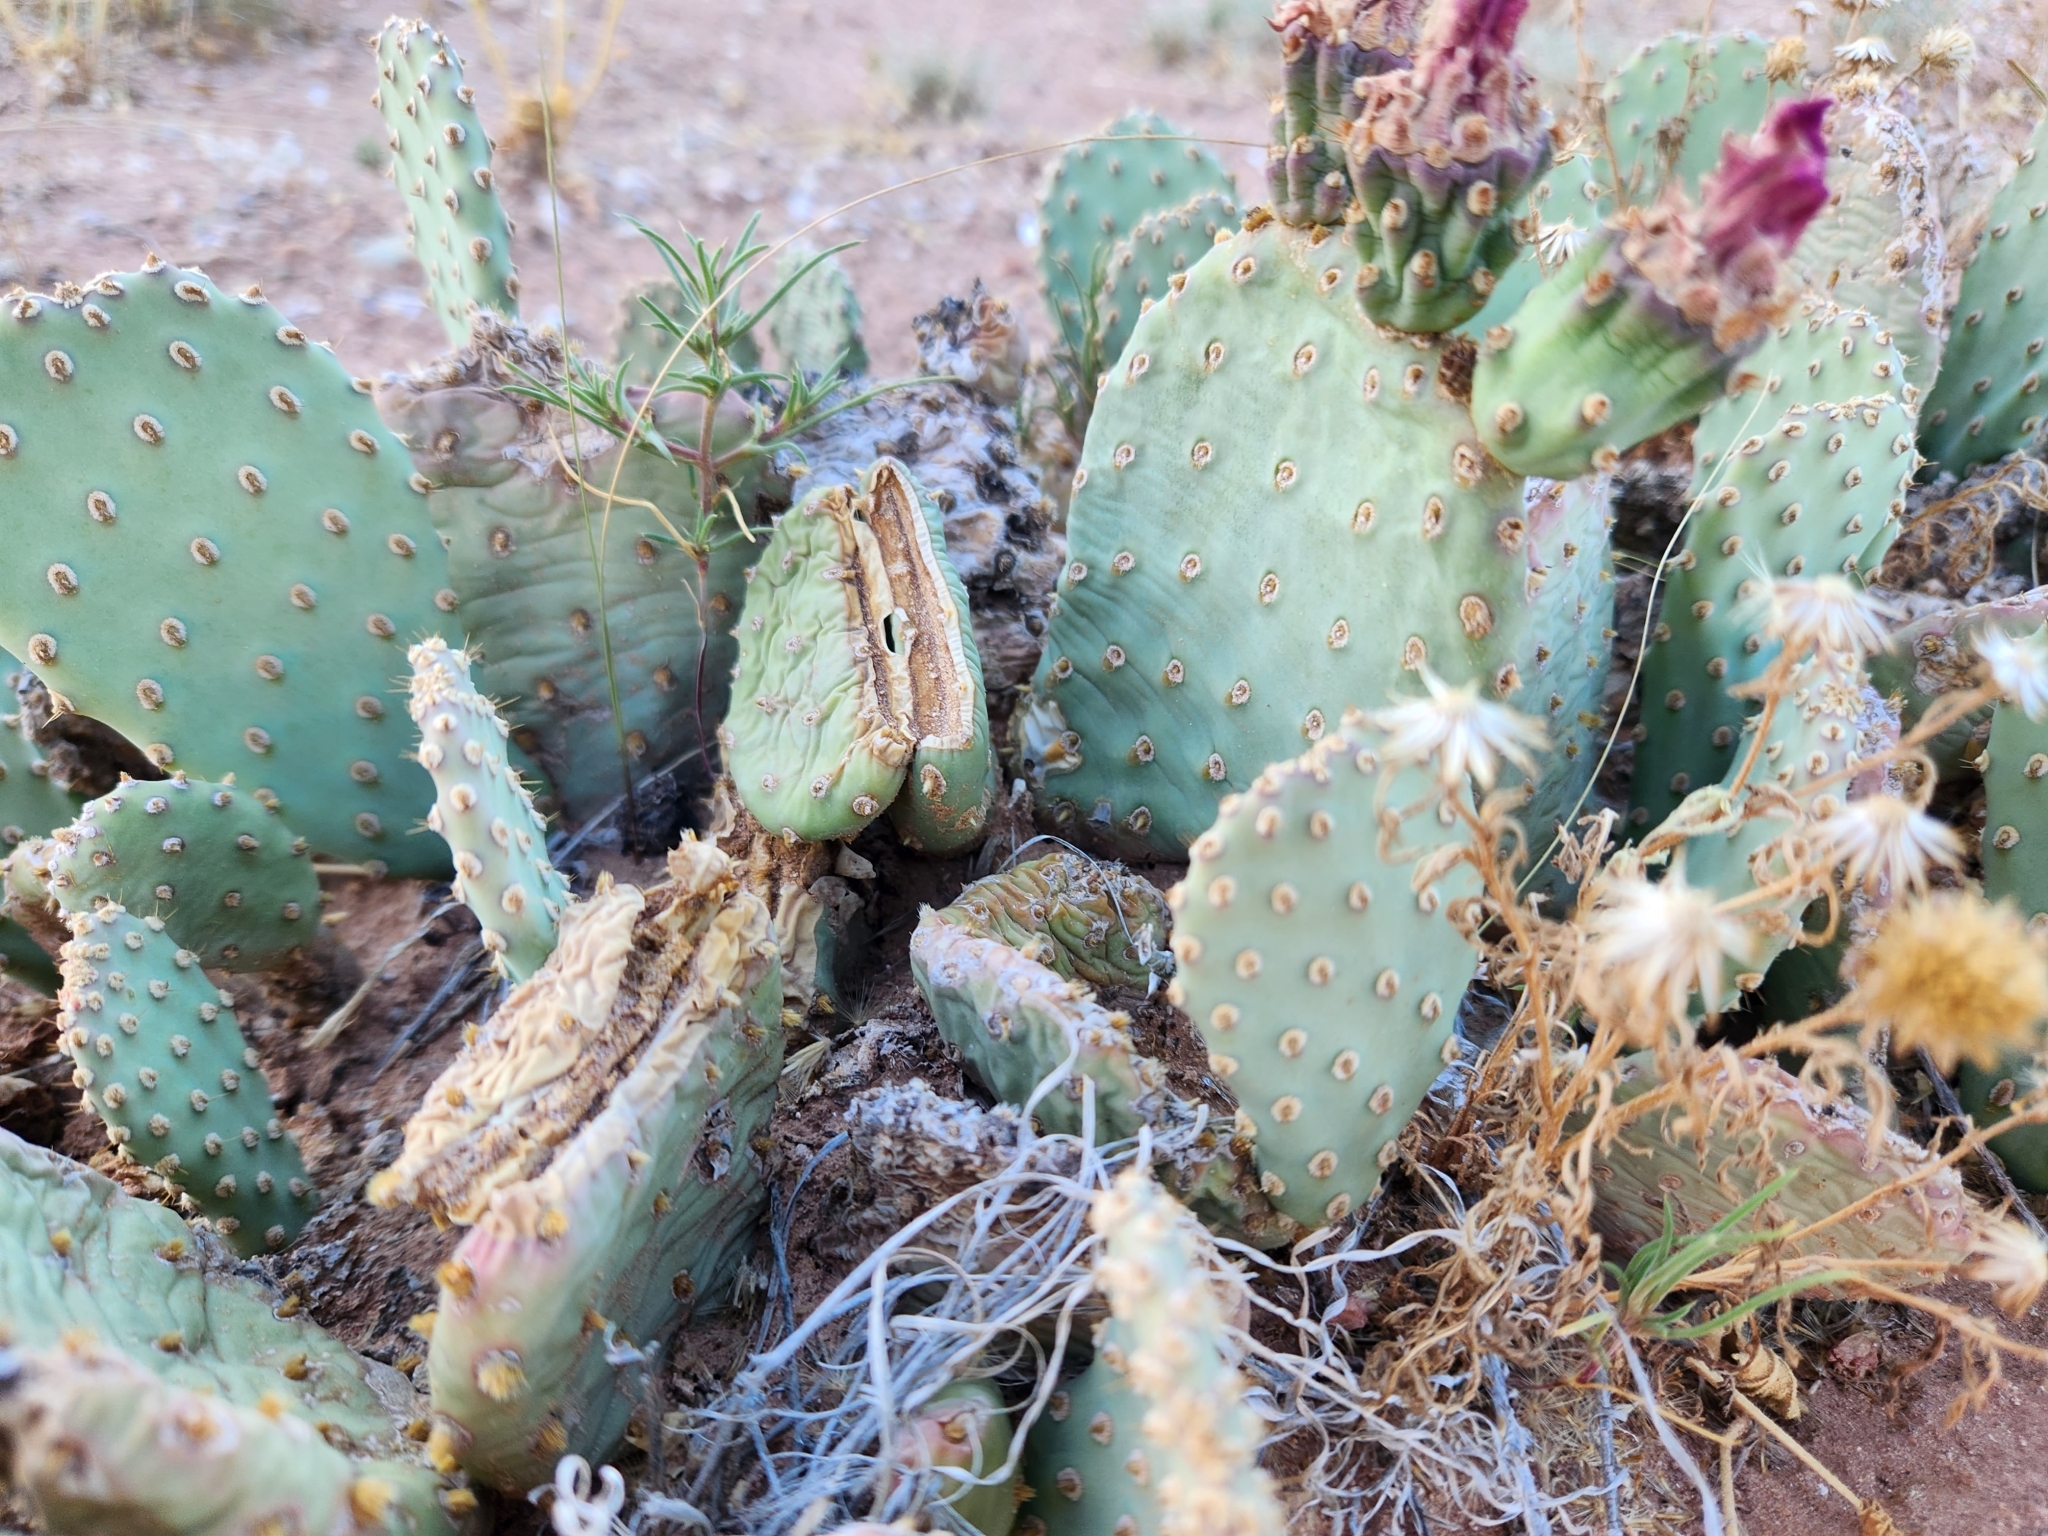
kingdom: Plantae
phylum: Tracheophyta
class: Magnoliopsida
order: Caryophyllales
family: Cactaceae
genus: Opuntia
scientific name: Opuntia basilaris
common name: Beavertail prickly-pear
